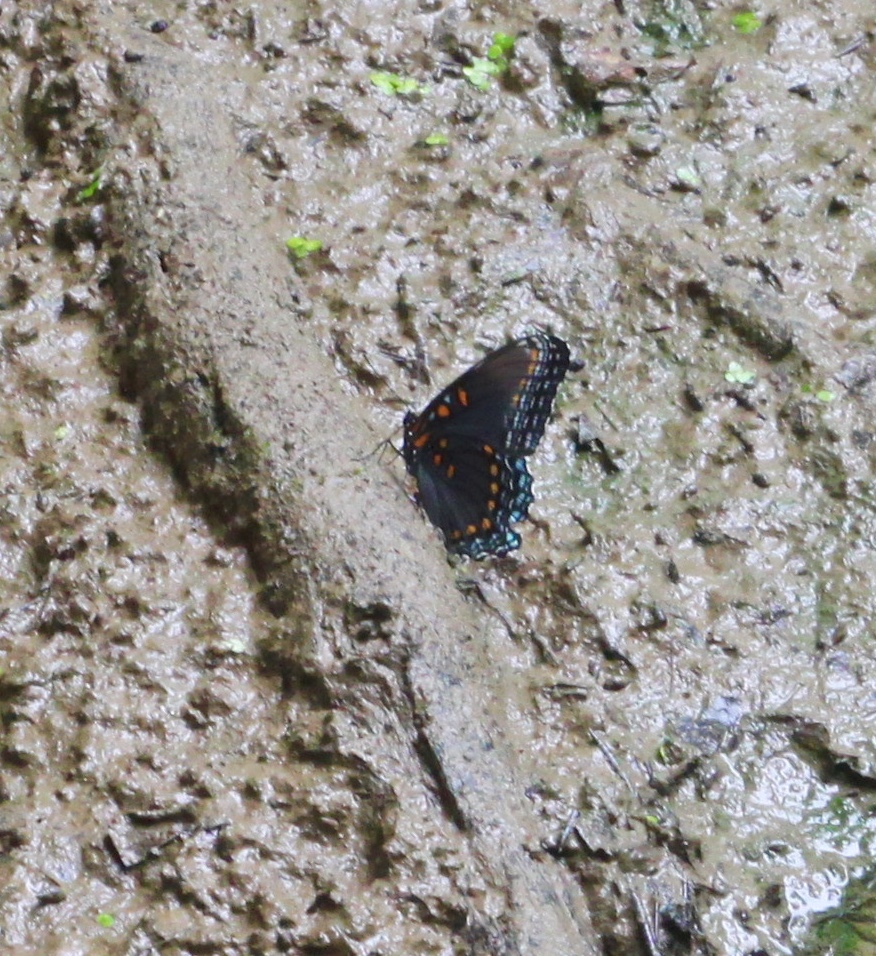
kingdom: Animalia
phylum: Arthropoda
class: Insecta
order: Lepidoptera
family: Nymphalidae
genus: Limenitis
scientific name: Limenitis astyanax
